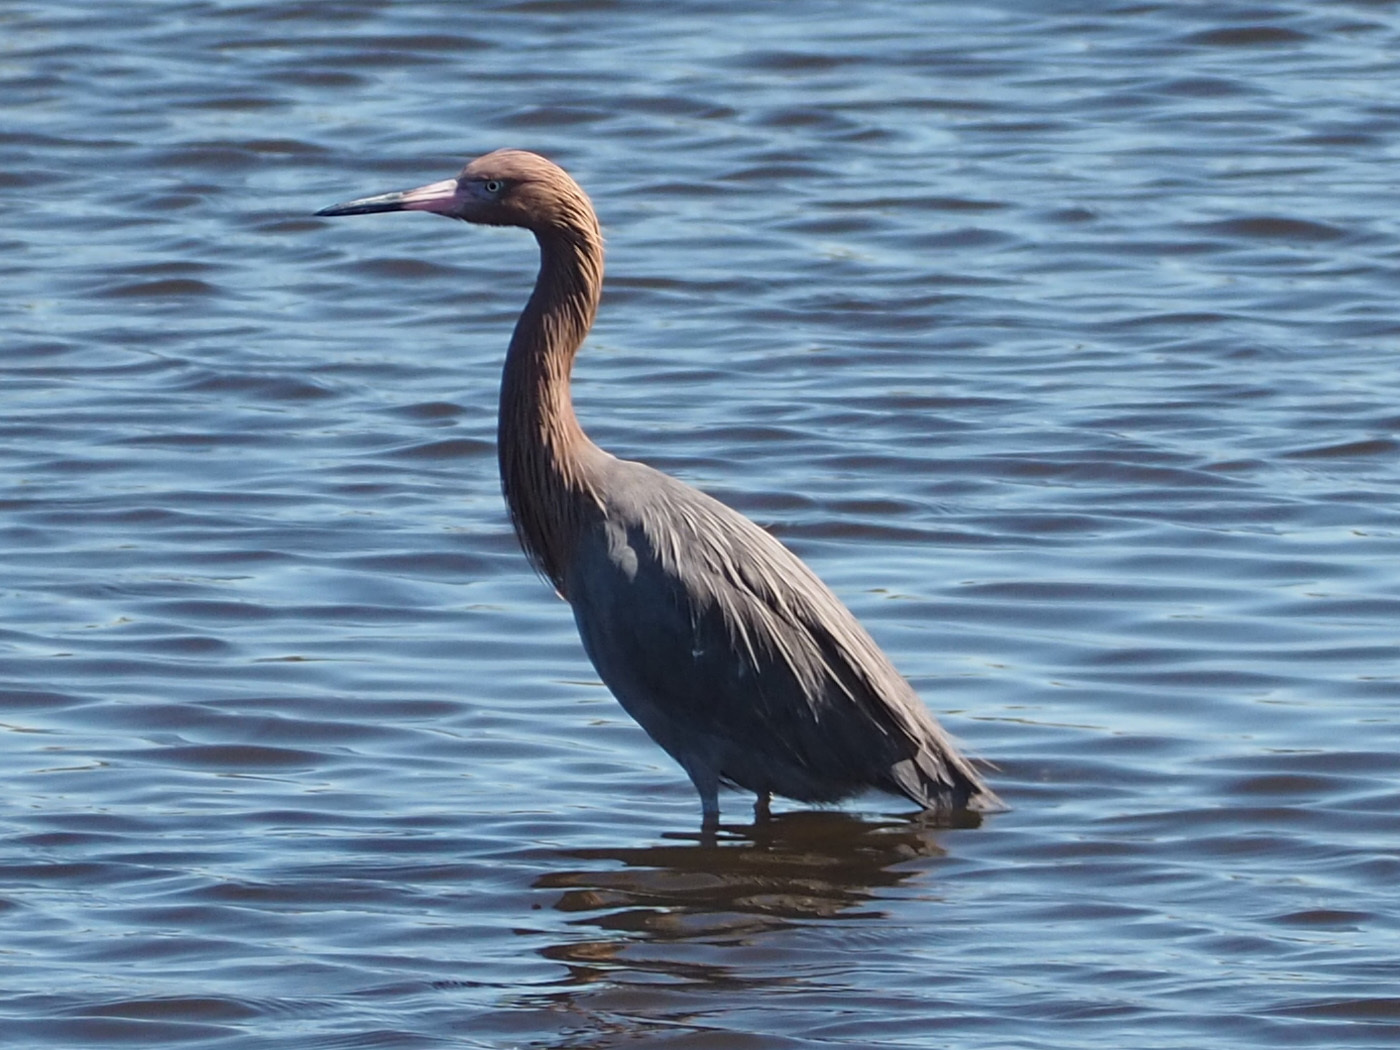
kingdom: Animalia
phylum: Chordata
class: Aves
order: Pelecaniformes
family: Ardeidae
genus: Egretta
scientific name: Egretta rufescens
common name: Reddish egret
